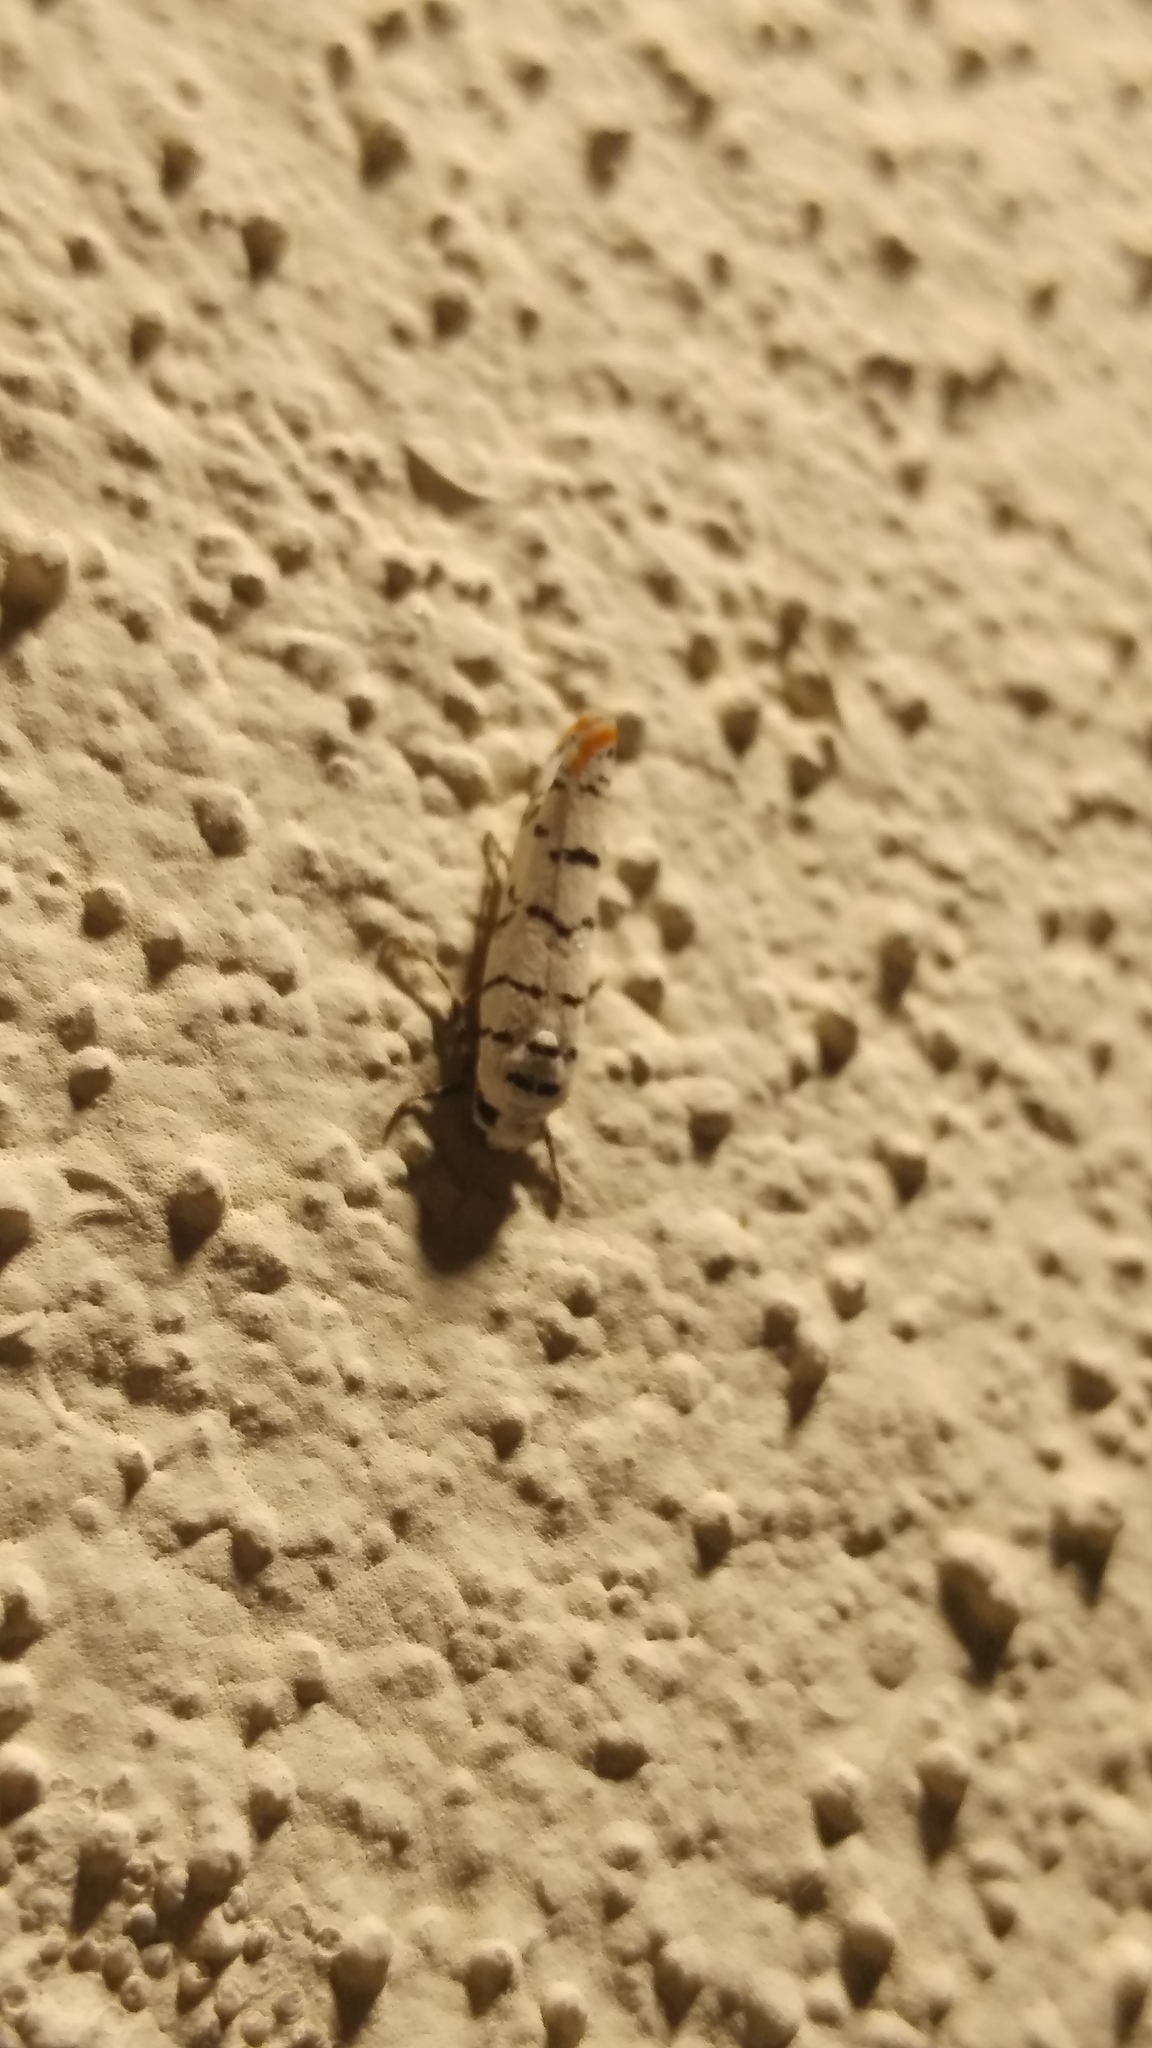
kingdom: Animalia
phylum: Arthropoda
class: Insecta
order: Lepidoptera
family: Ethmiidae
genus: Ethmia
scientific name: Ethmia delliella
